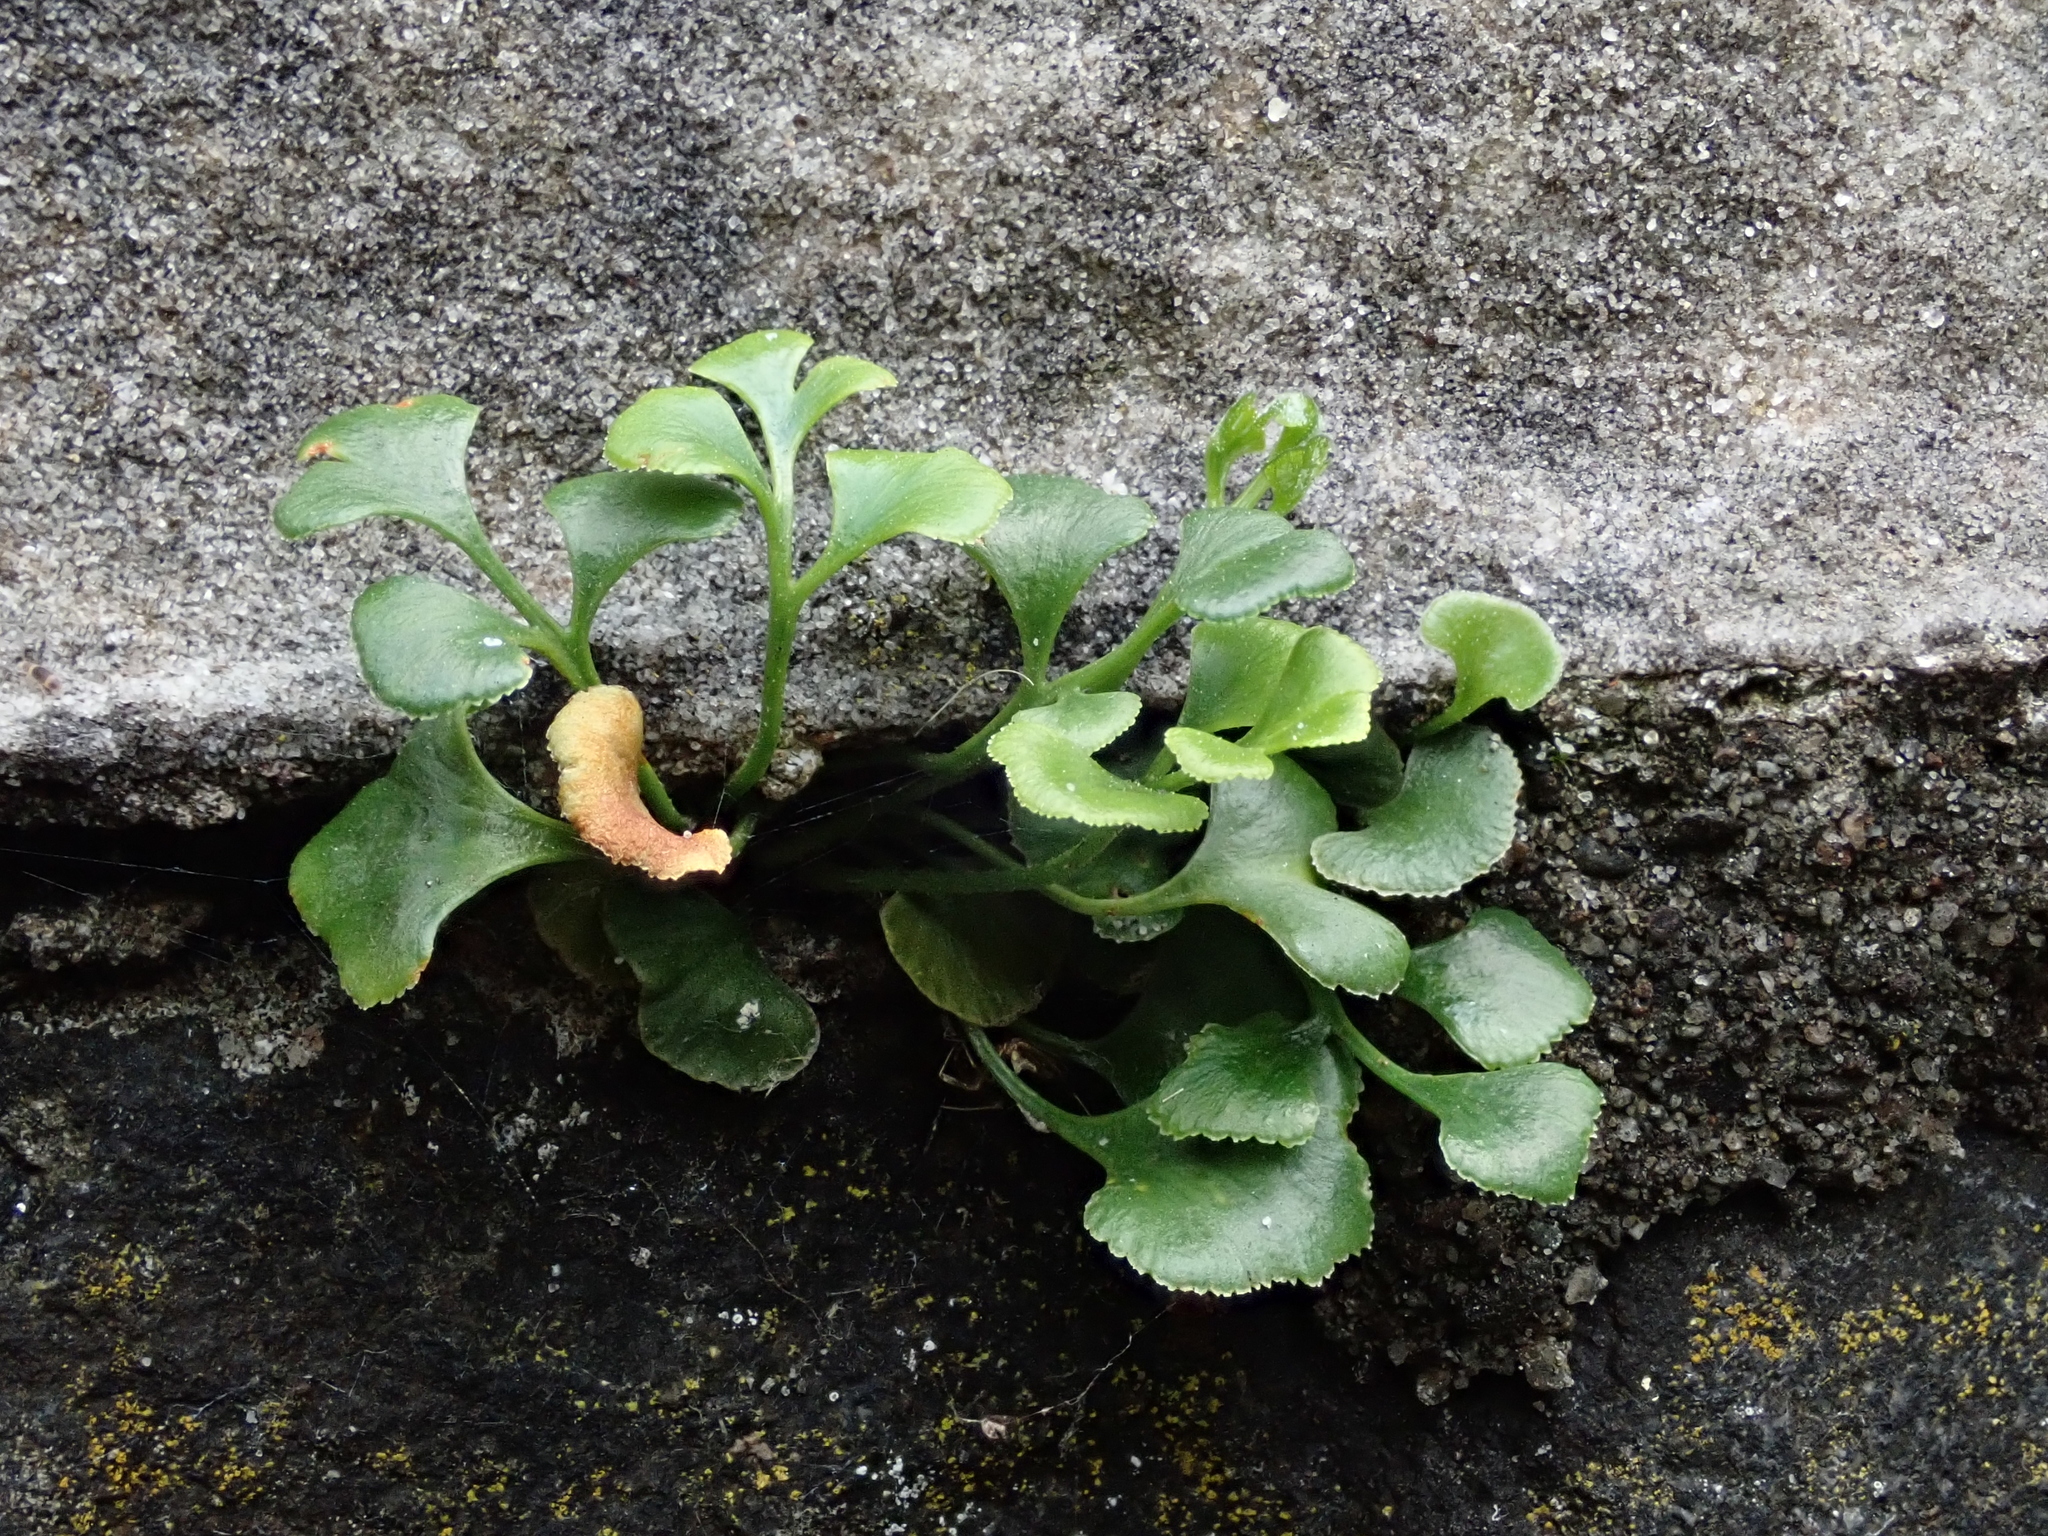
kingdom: Plantae
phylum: Tracheophyta
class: Polypodiopsida
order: Polypodiales
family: Aspleniaceae
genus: Asplenium
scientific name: Asplenium ruta-muraria
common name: Wall-rue
